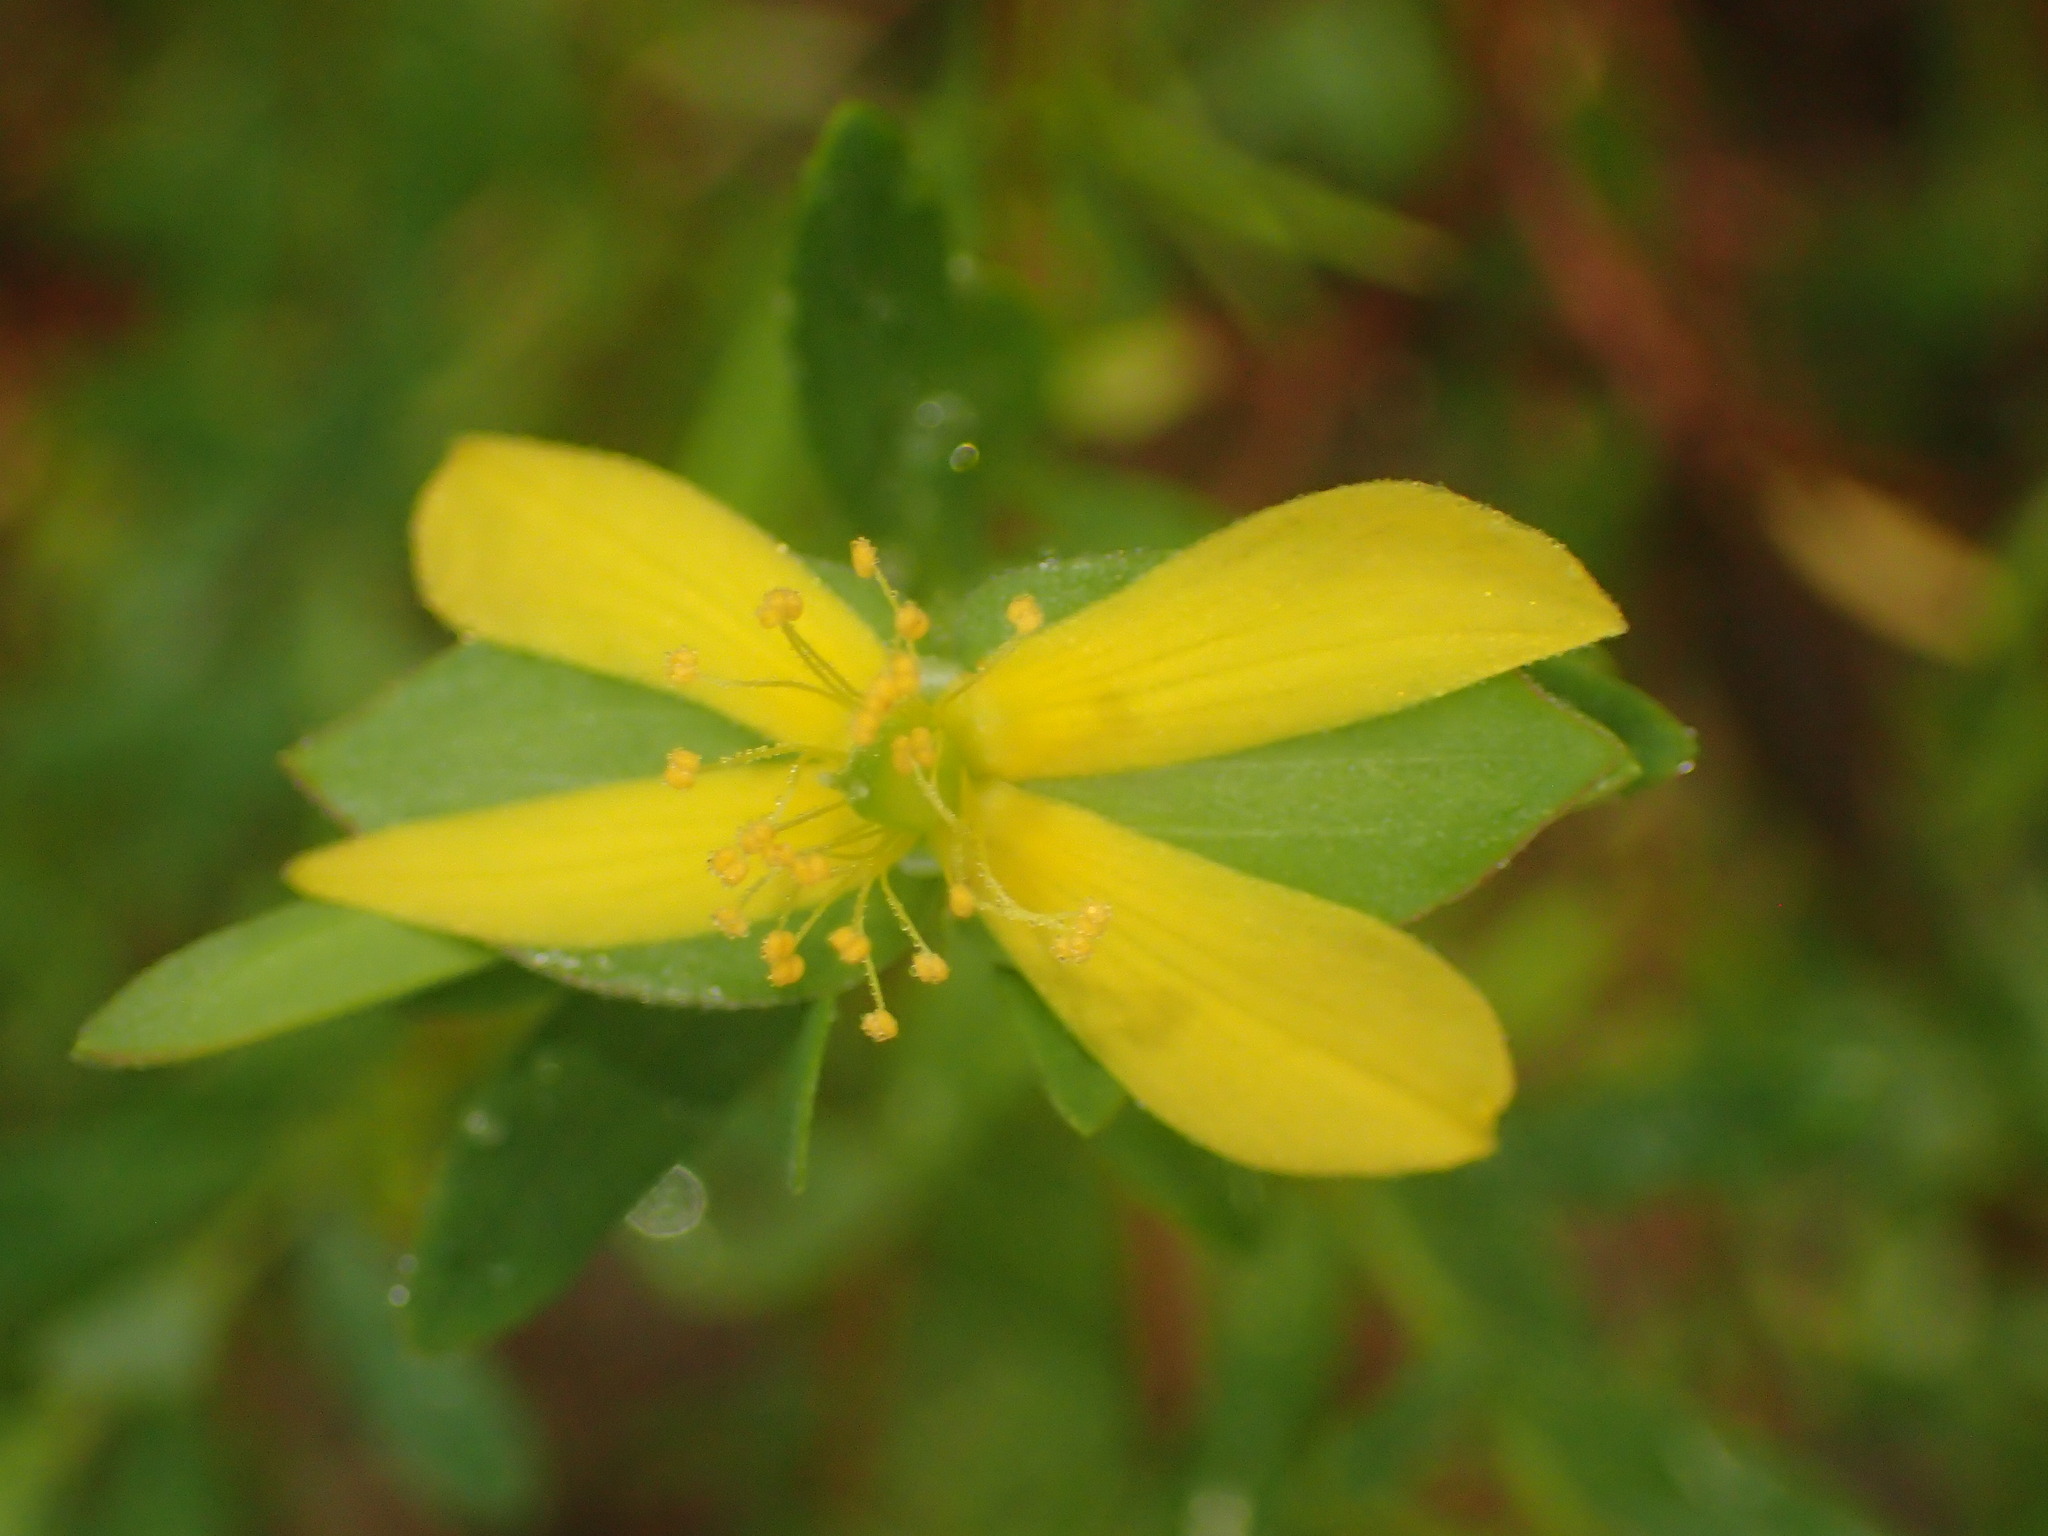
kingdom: Plantae
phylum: Tracheophyta
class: Magnoliopsida
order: Malpighiales
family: Hypericaceae
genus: Hypericum
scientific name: Hypericum hypericoides
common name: St. andrew's cross
